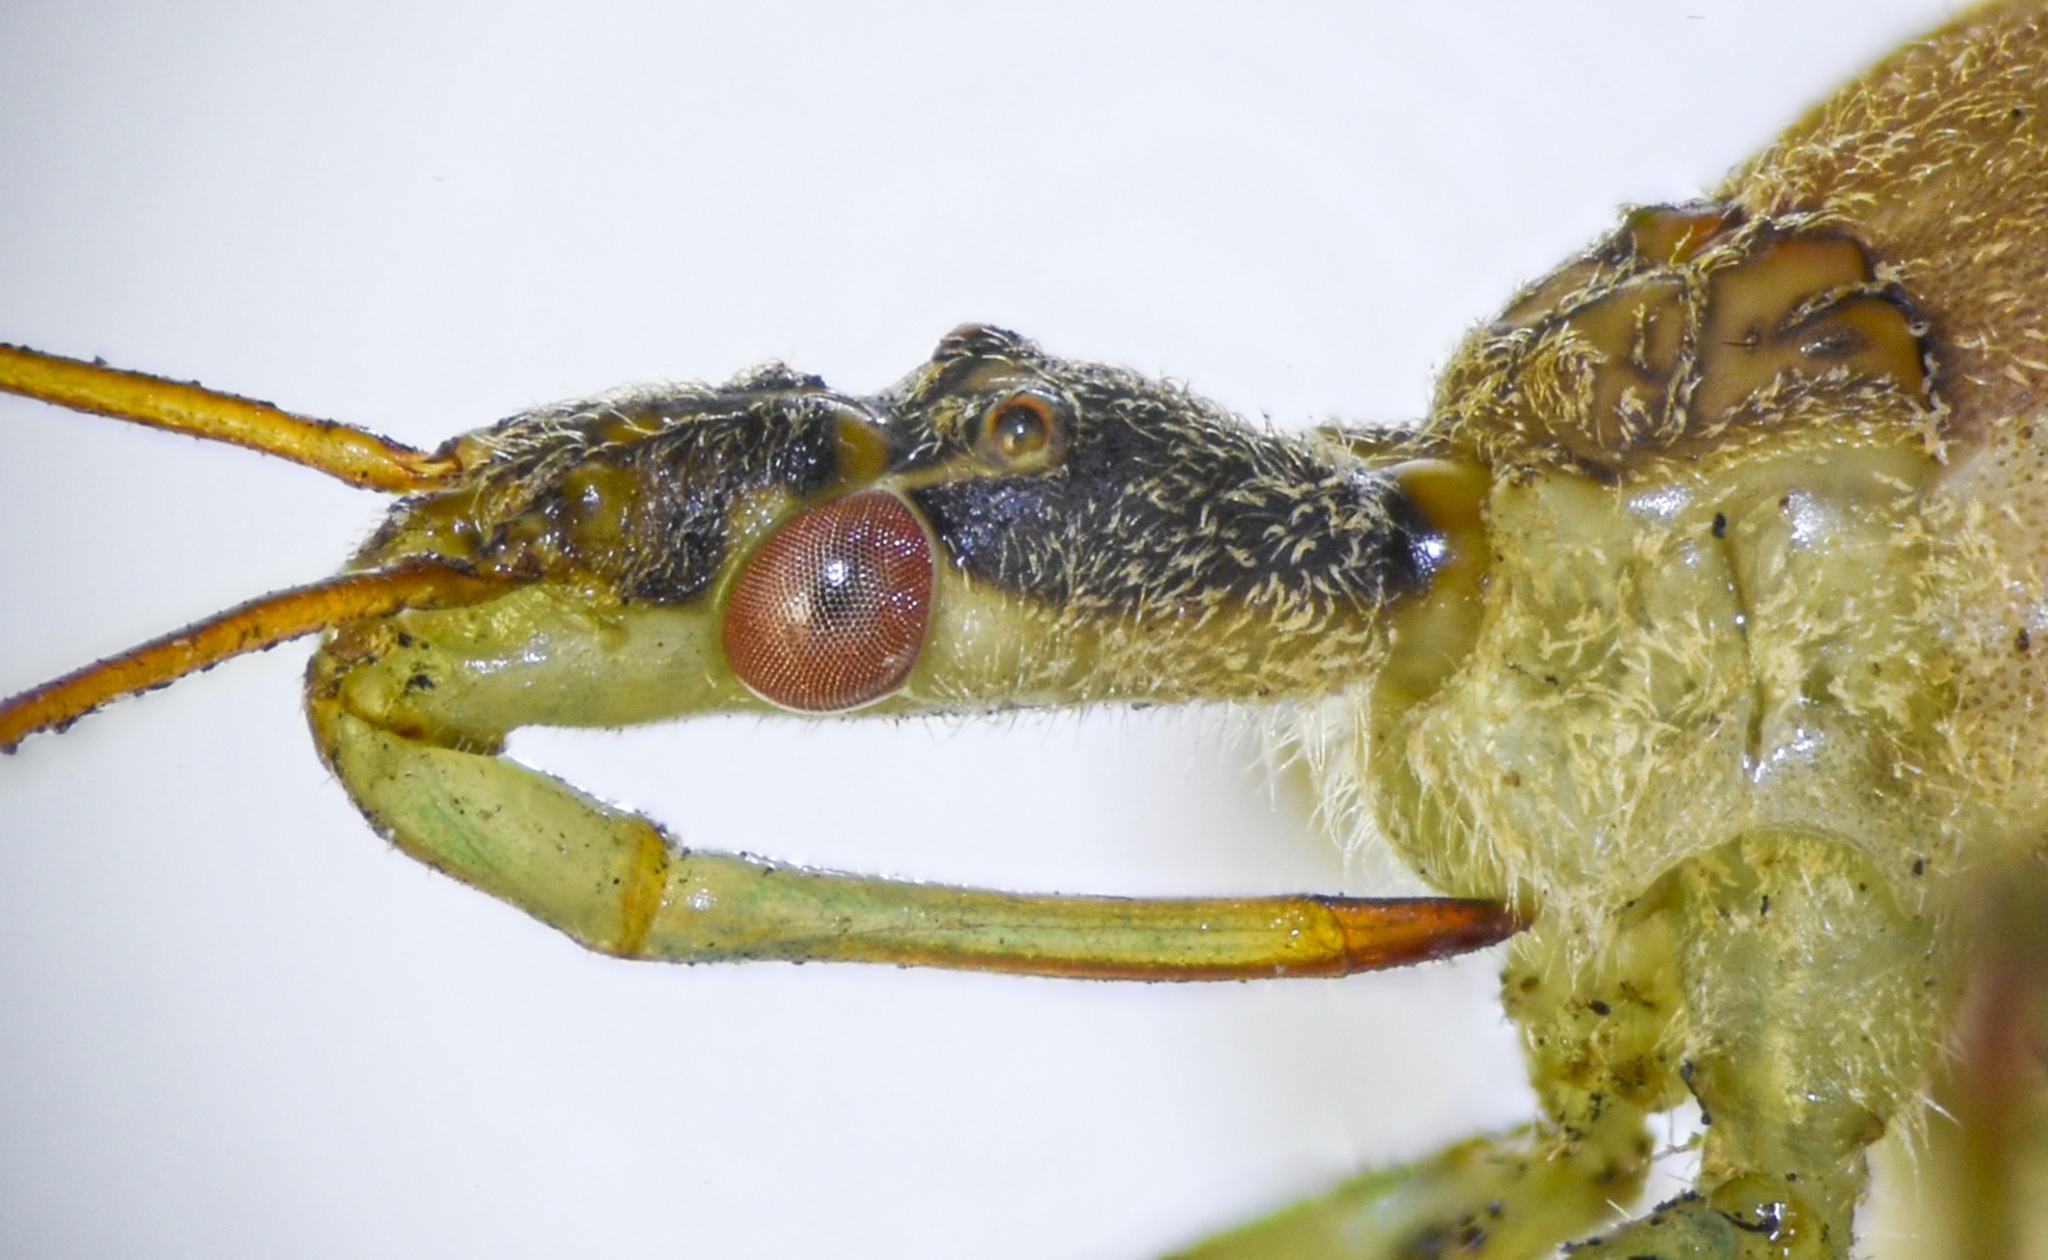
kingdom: Animalia
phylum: Arthropoda
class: Insecta
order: Hemiptera
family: Reduviidae
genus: Zelus
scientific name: Zelus renardii
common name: Assassin bug
